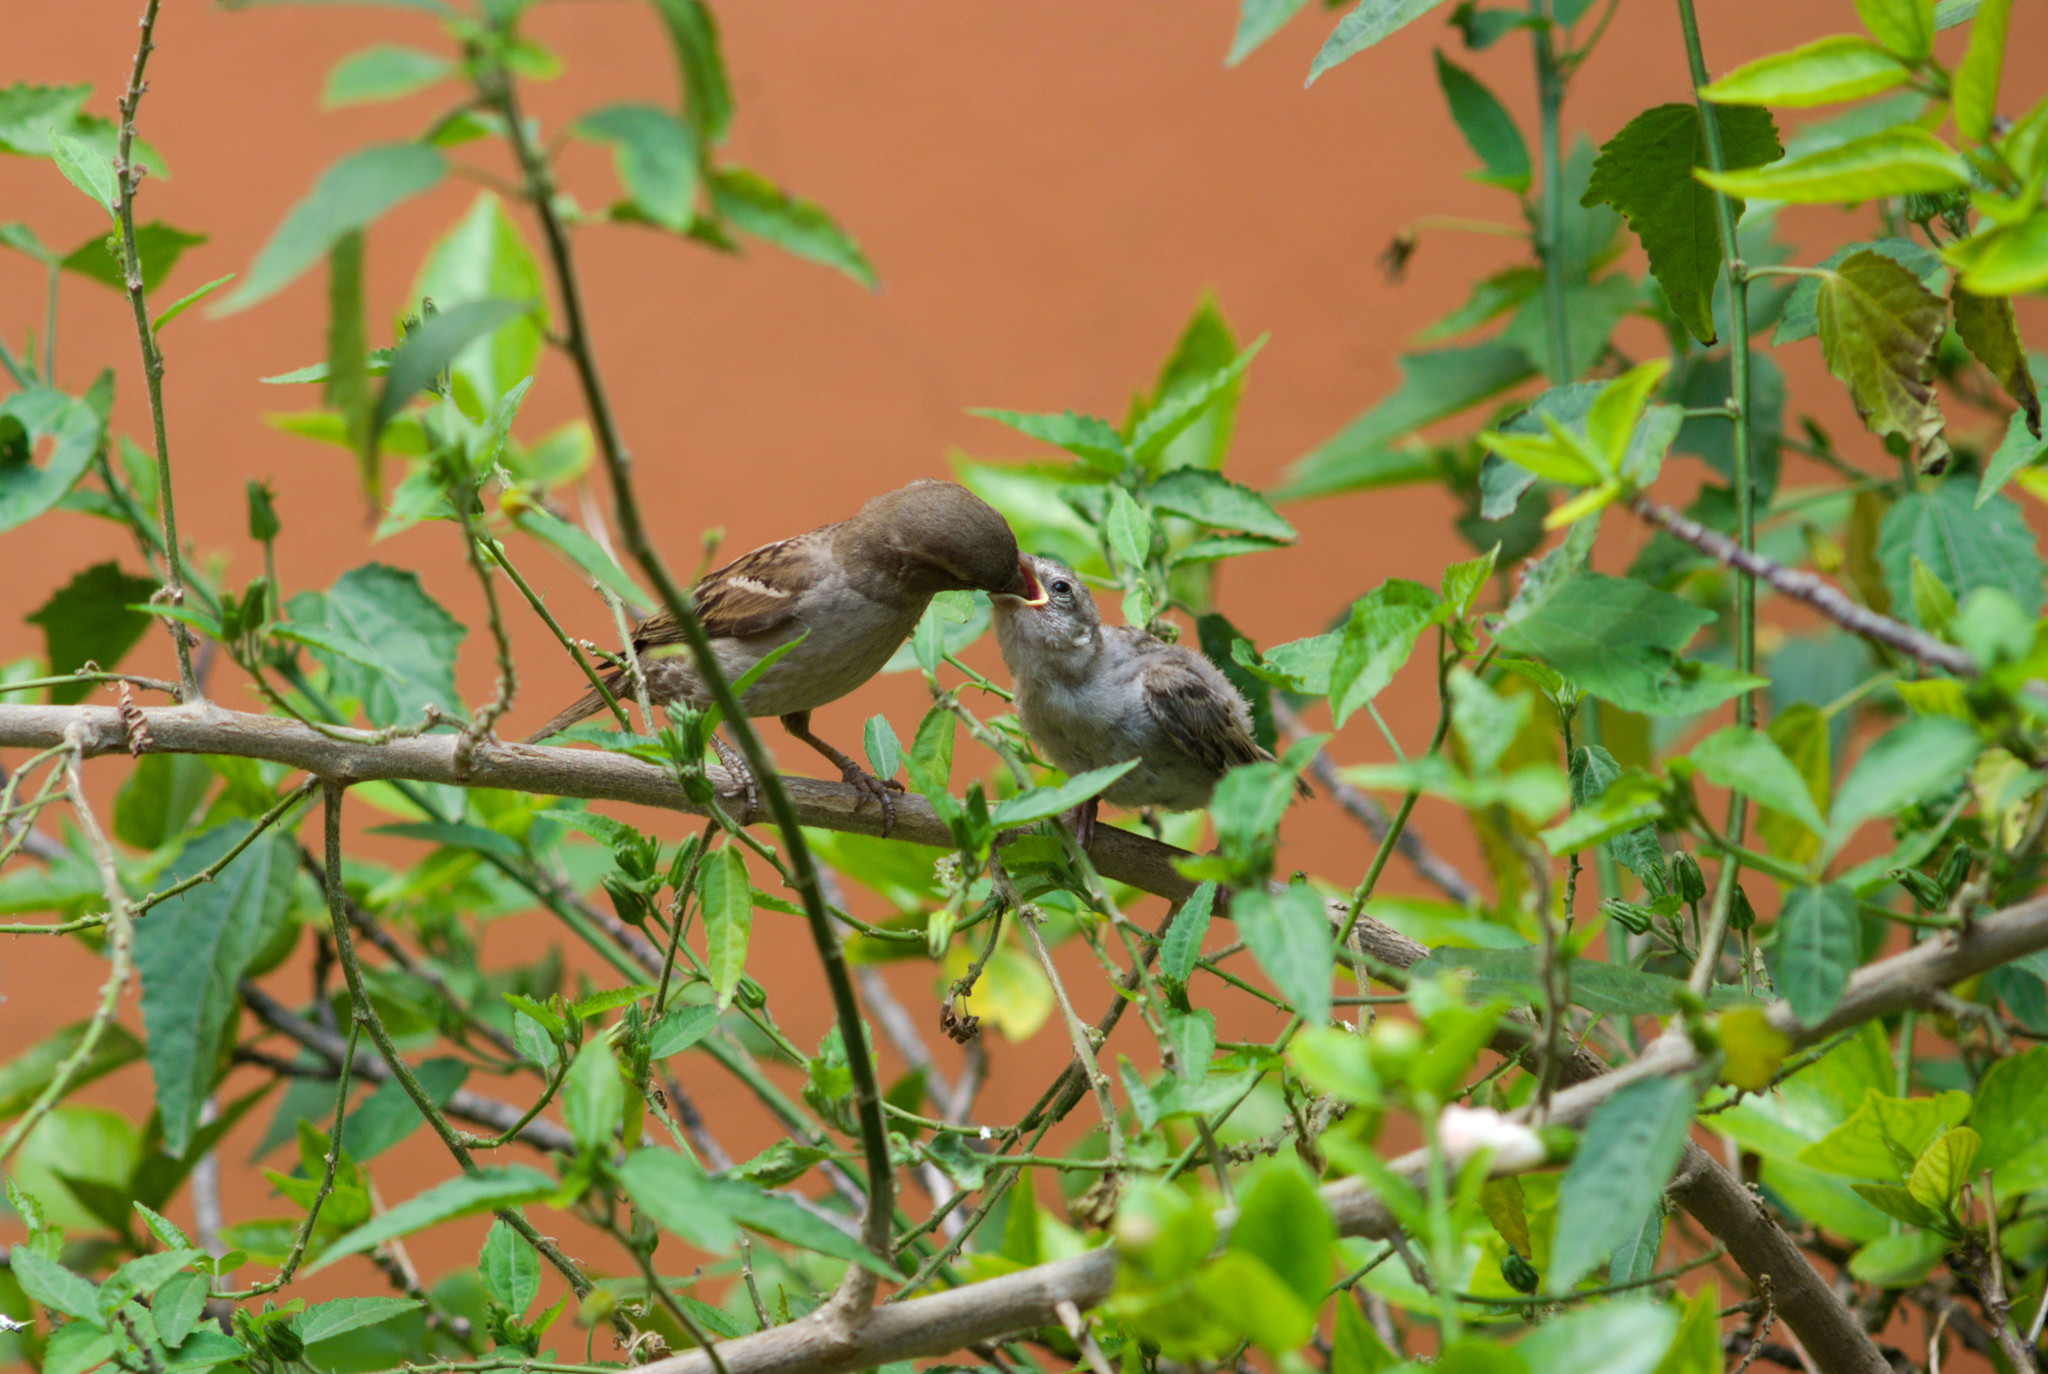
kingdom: Animalia
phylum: Chordata
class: Aves
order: Passeriformes
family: Passeridae
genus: Passer
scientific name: Passer domesticus
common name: House sparrow
